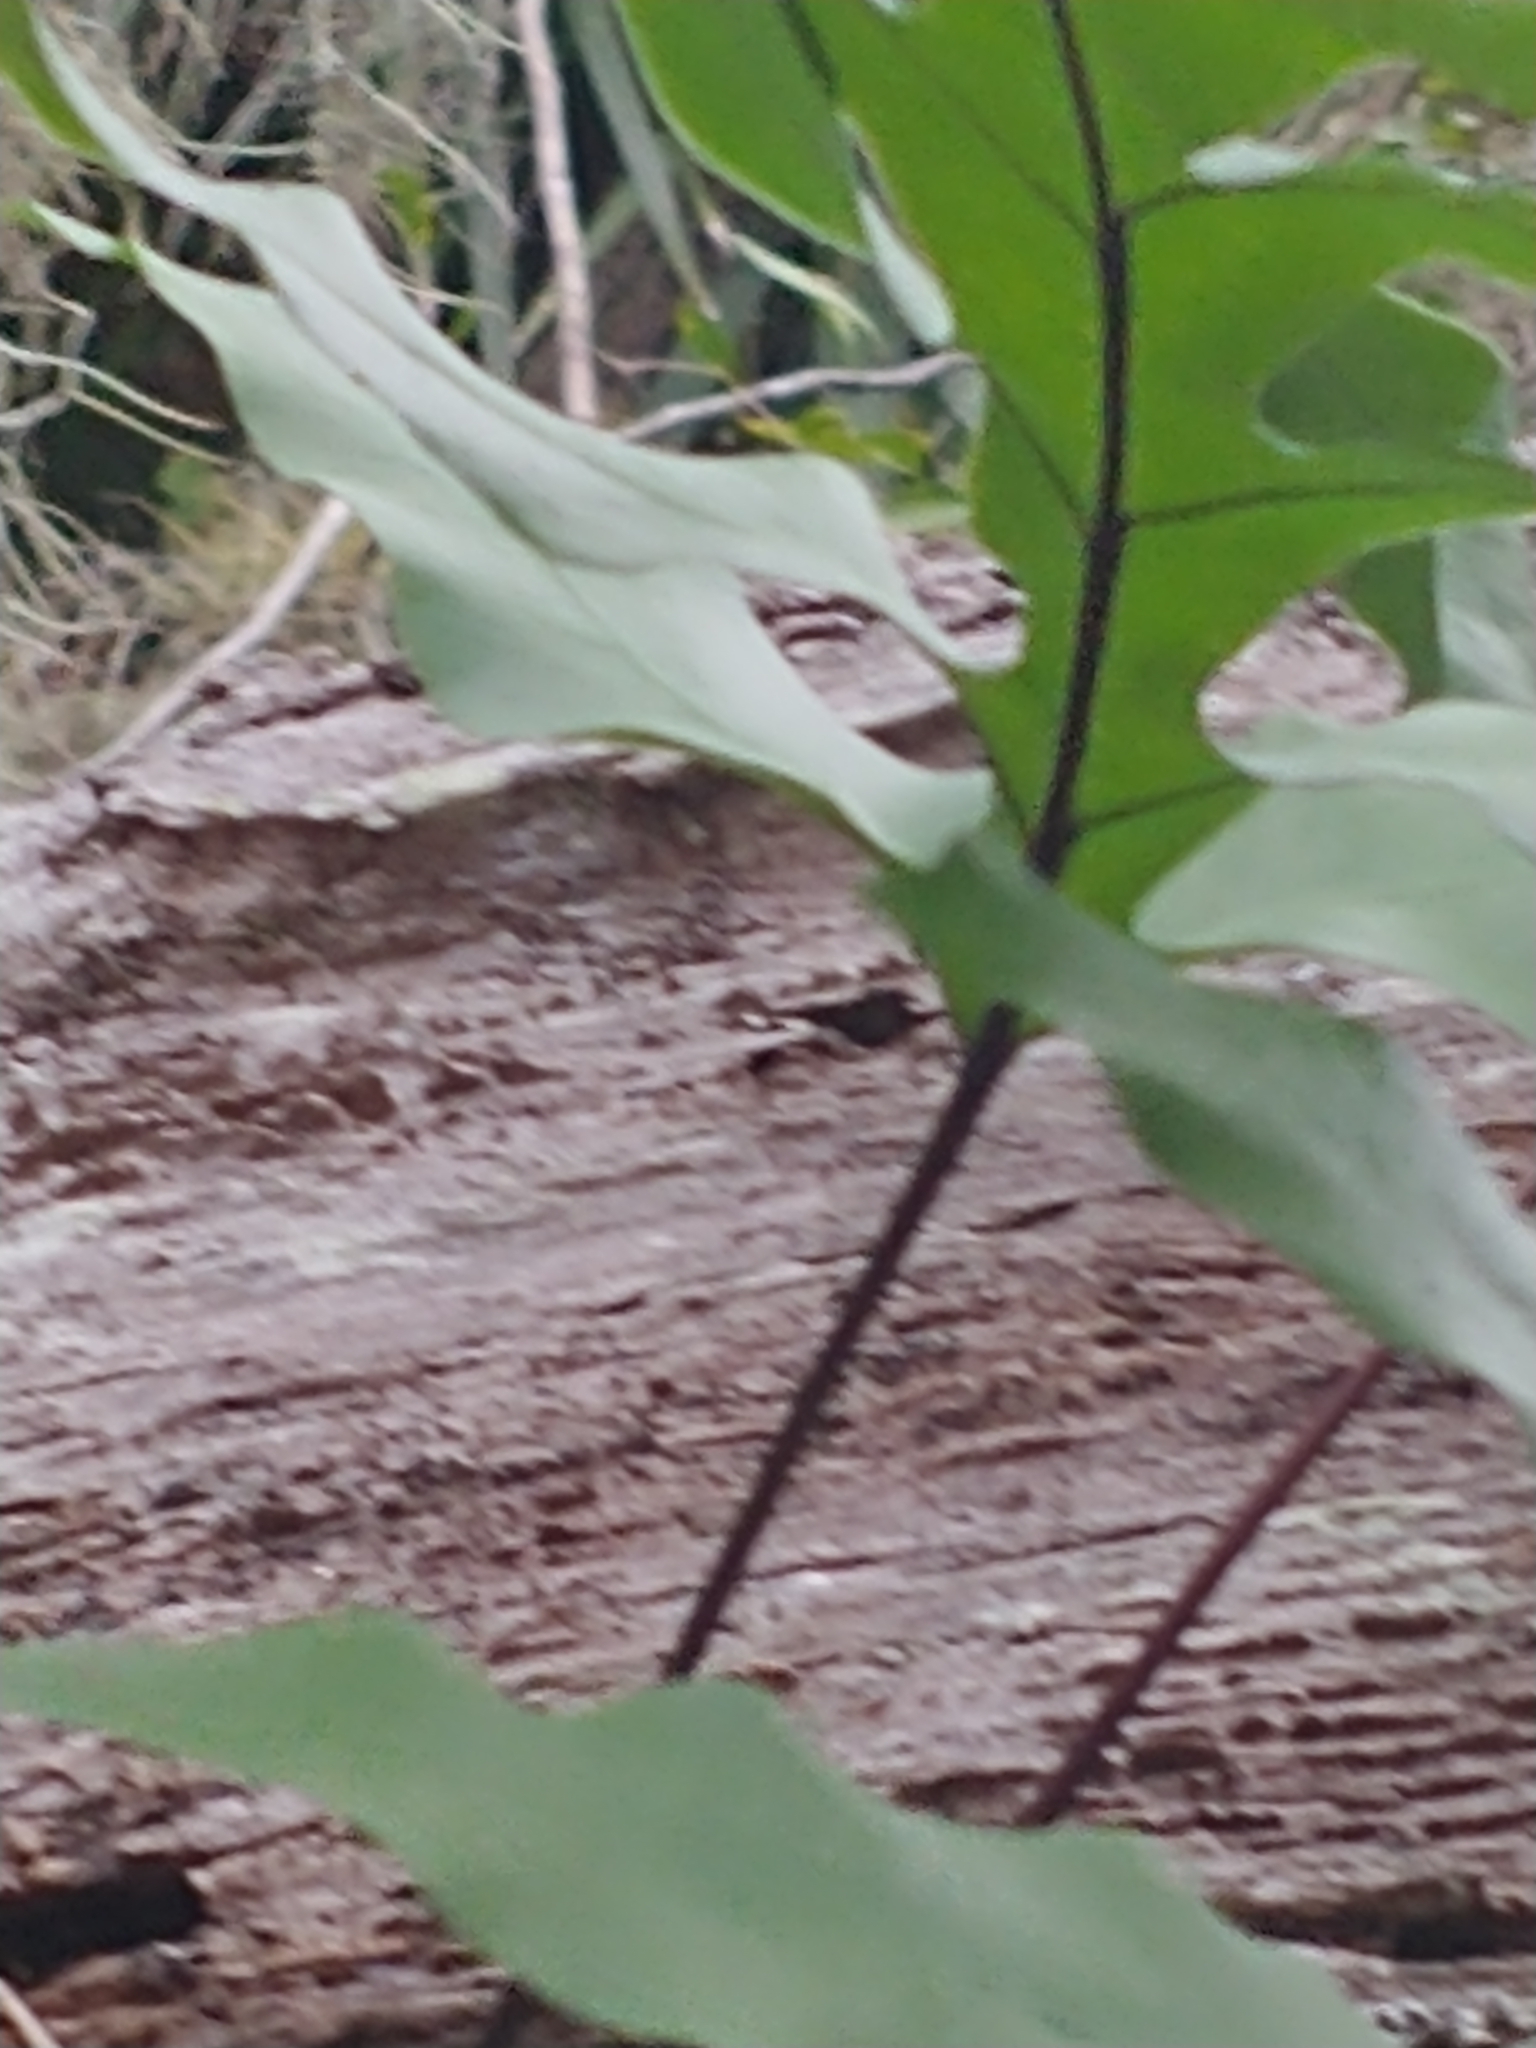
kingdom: Plantae
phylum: Tracheophyta
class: Polypodiopsida
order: Polypodiales
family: Polypodiaceae
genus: Phlebodium
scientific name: Phlebodium aureum
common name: Gold-foot fern
